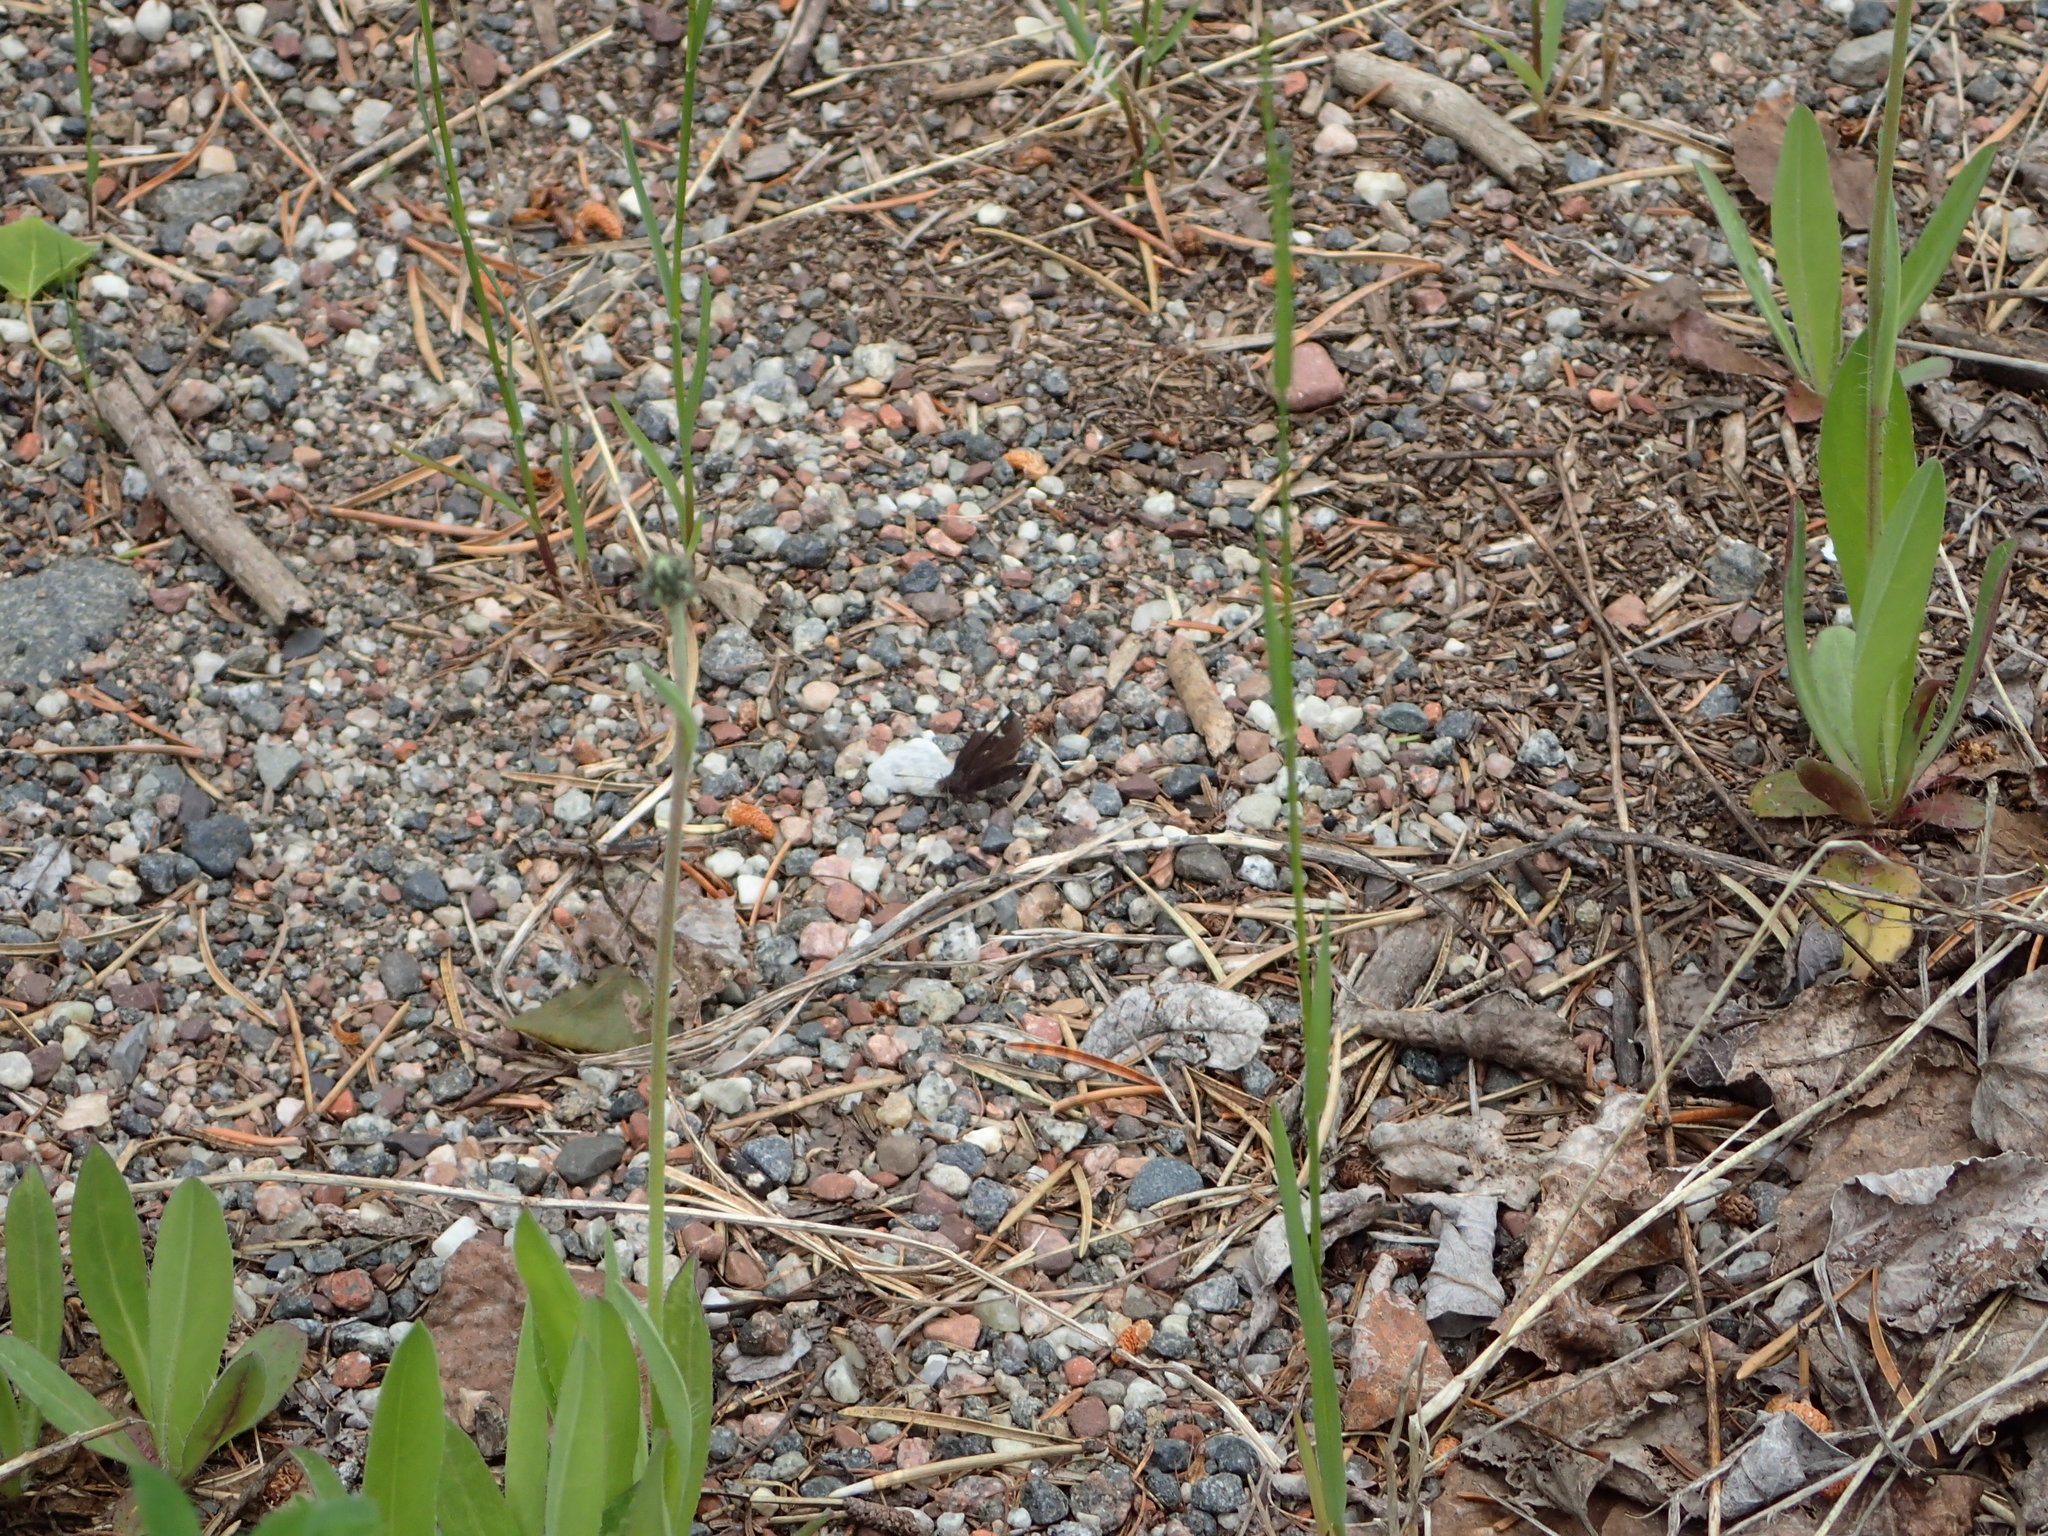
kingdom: Animalia
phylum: Arthropoda
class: Insecta
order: Lepidoptera
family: Hesperiidae
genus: Mastor
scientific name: Mastor vialis
